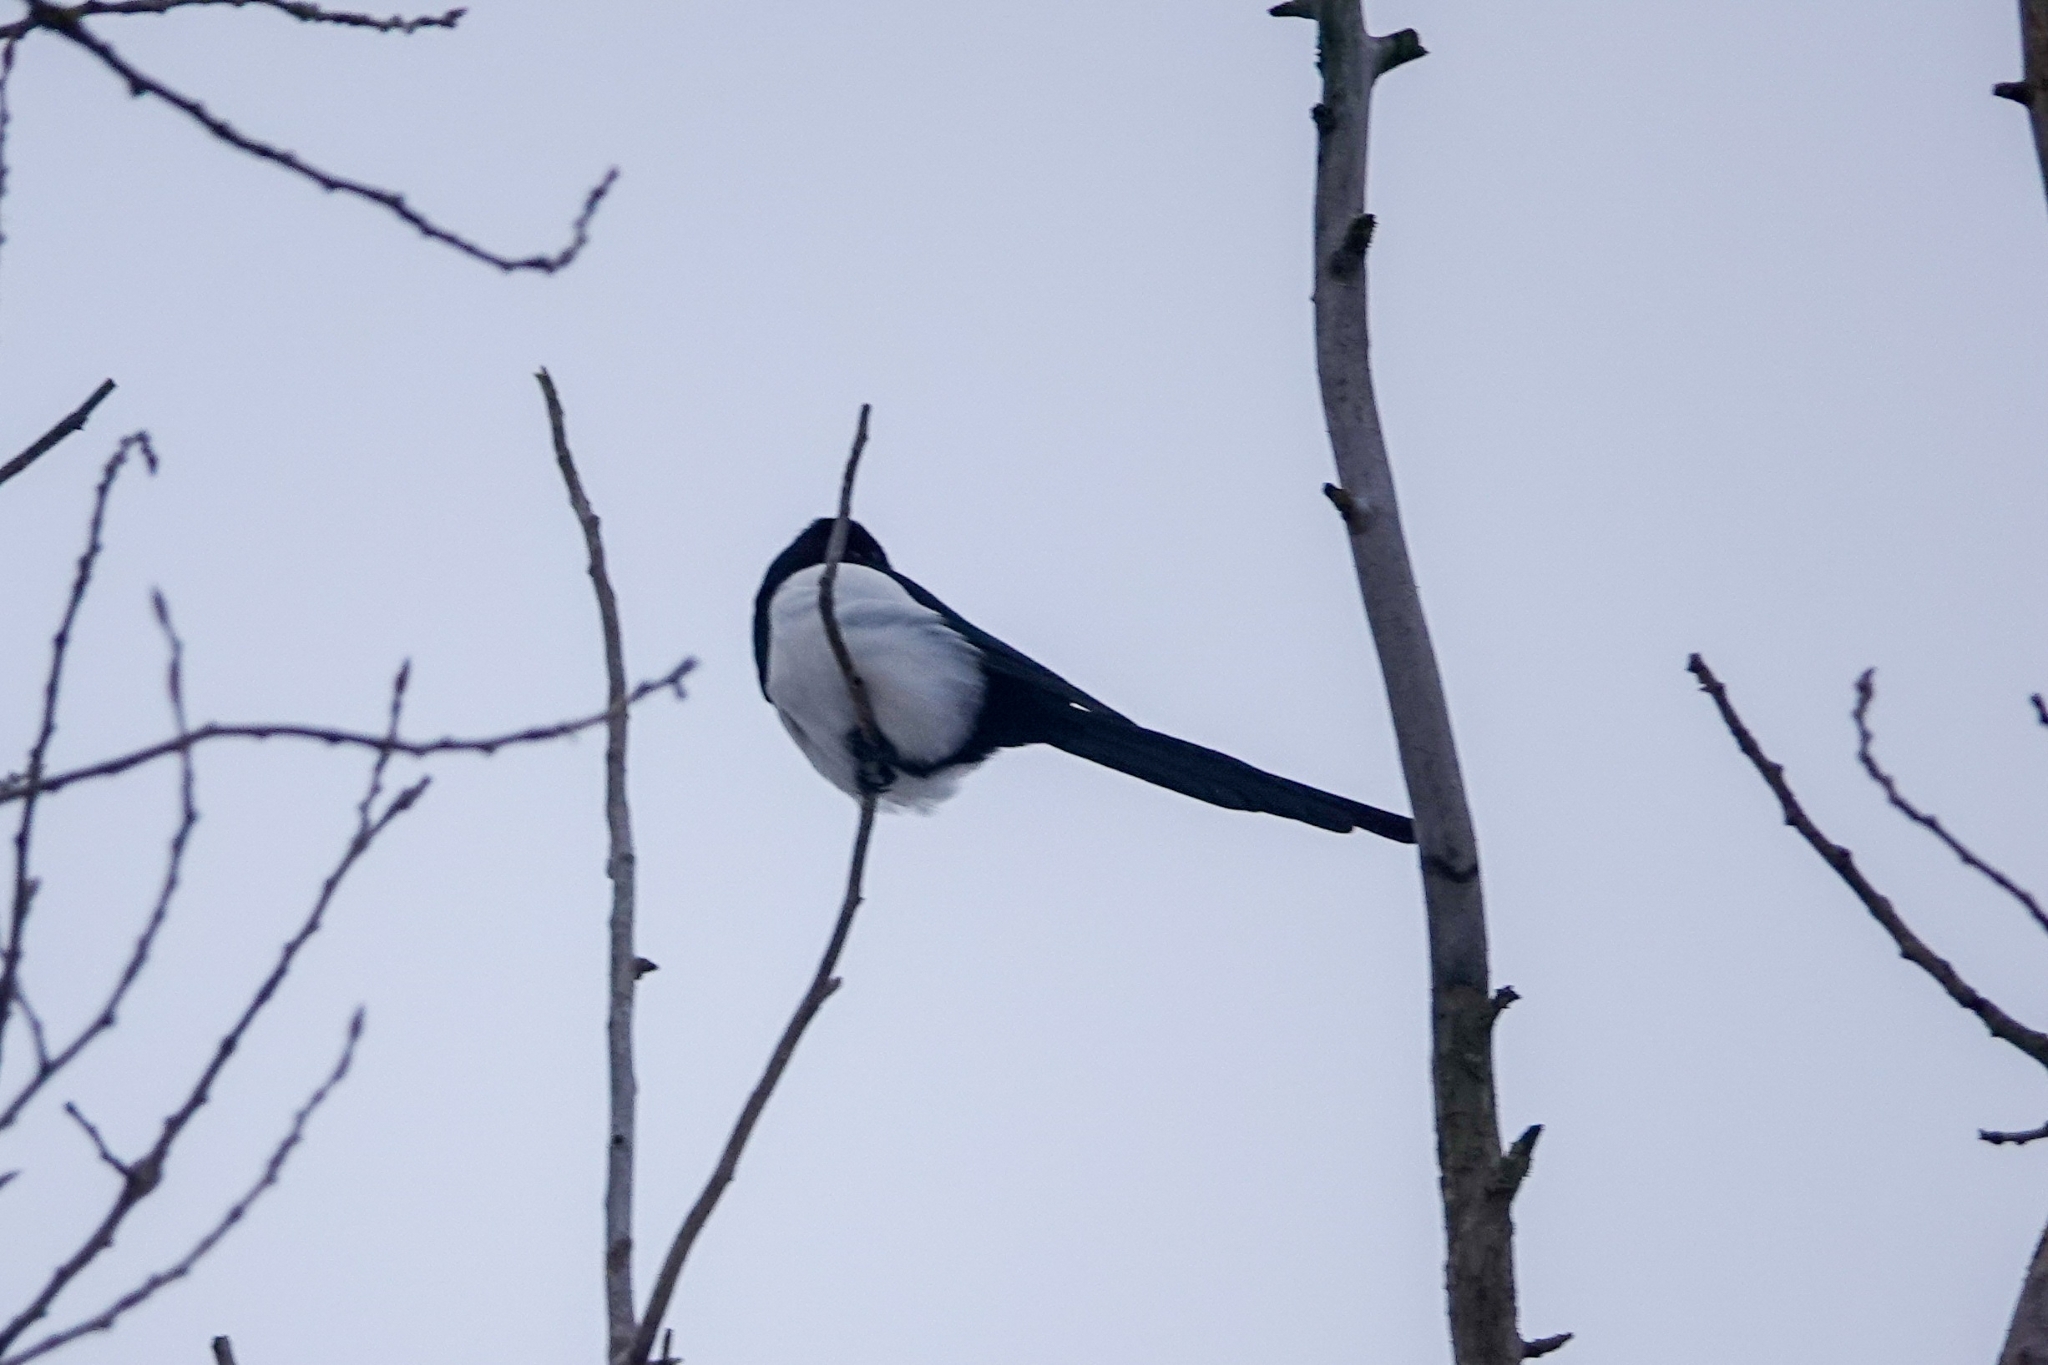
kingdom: Animalia
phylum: Chordata
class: Aves
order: Passeriformes
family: Corvidae
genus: Pica
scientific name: Pica pica
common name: Eurasian magpie
